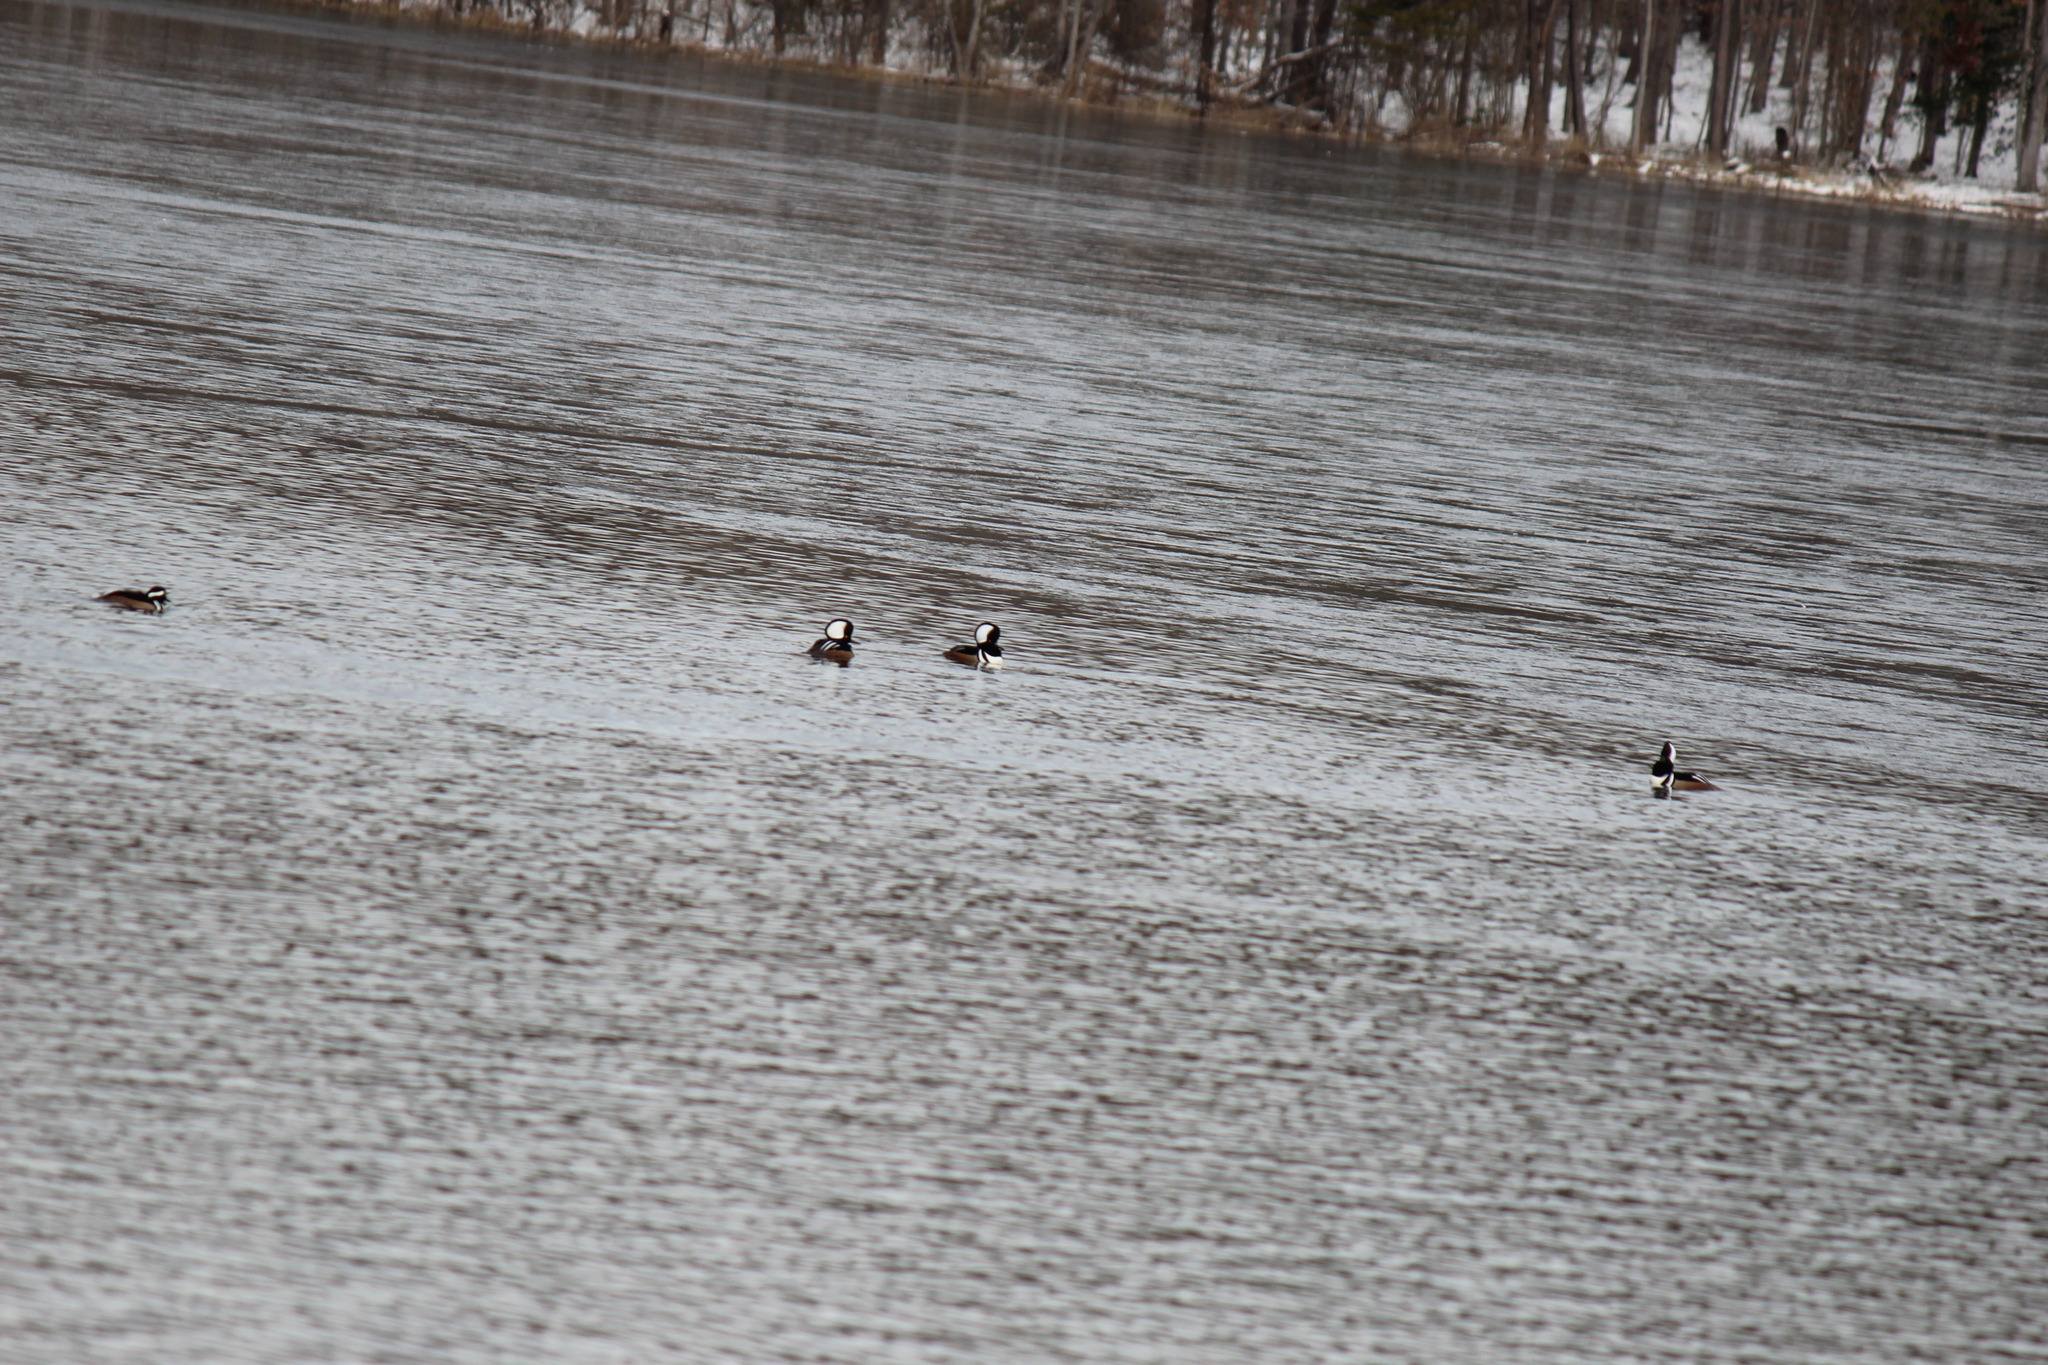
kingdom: Animalia
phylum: Chordata
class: Aves
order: Anseriformes
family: Anatidae
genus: Lophodytes
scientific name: Lophodytes cucullatus
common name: Hooded merganser
